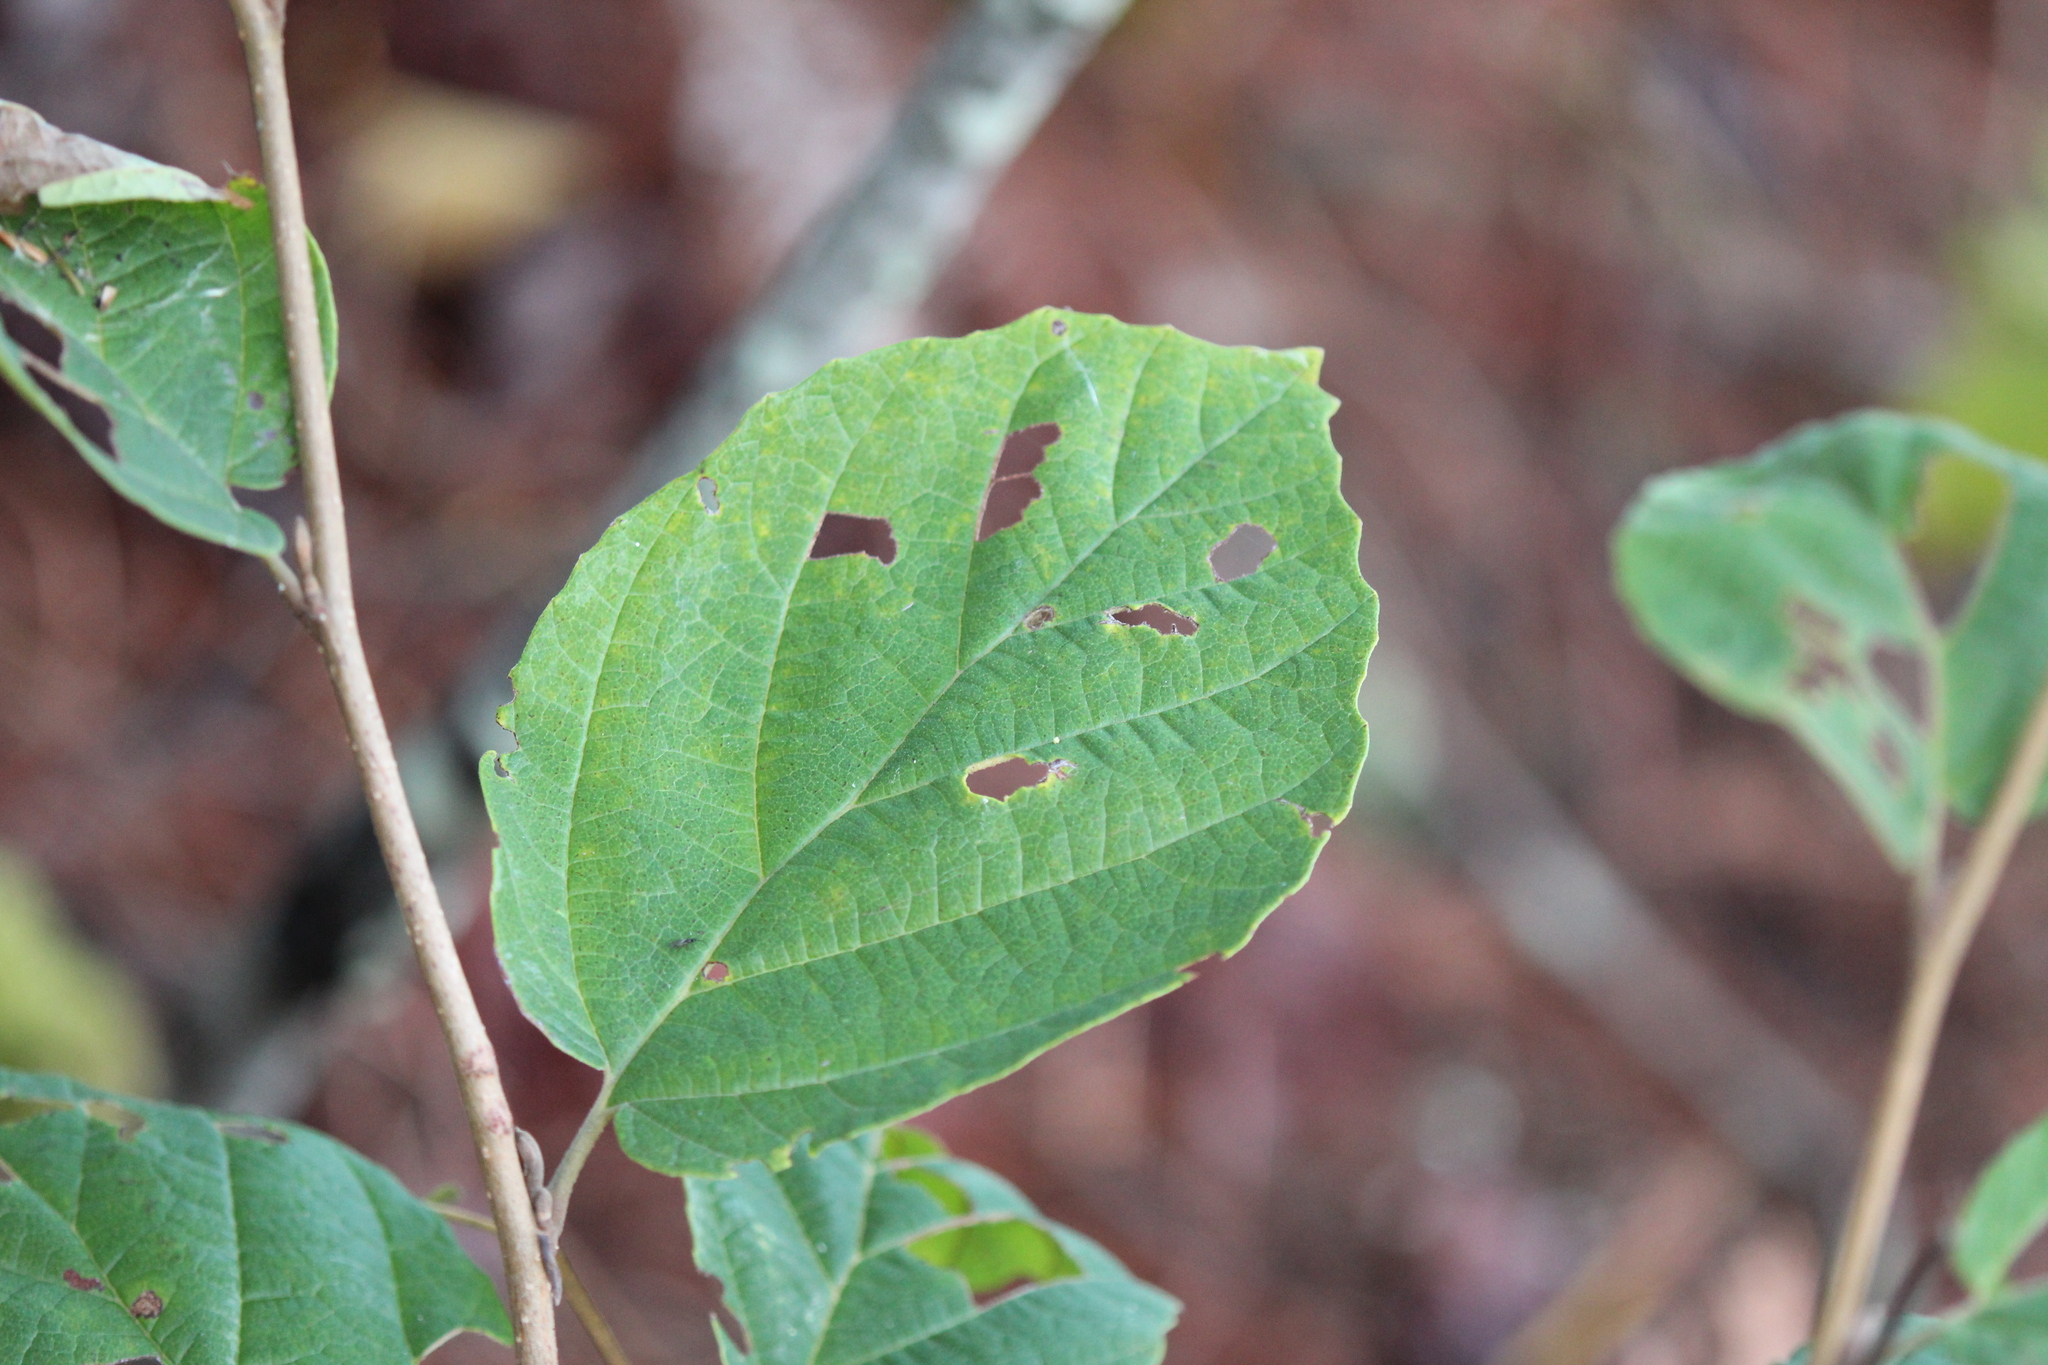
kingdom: Plantae
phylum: Tracheophyta
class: Magnoliopsida
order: Saxifragales
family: Hamamelidaceae
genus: Hamamelis
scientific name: Hamamelis virginiana
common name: Witch-hazel
